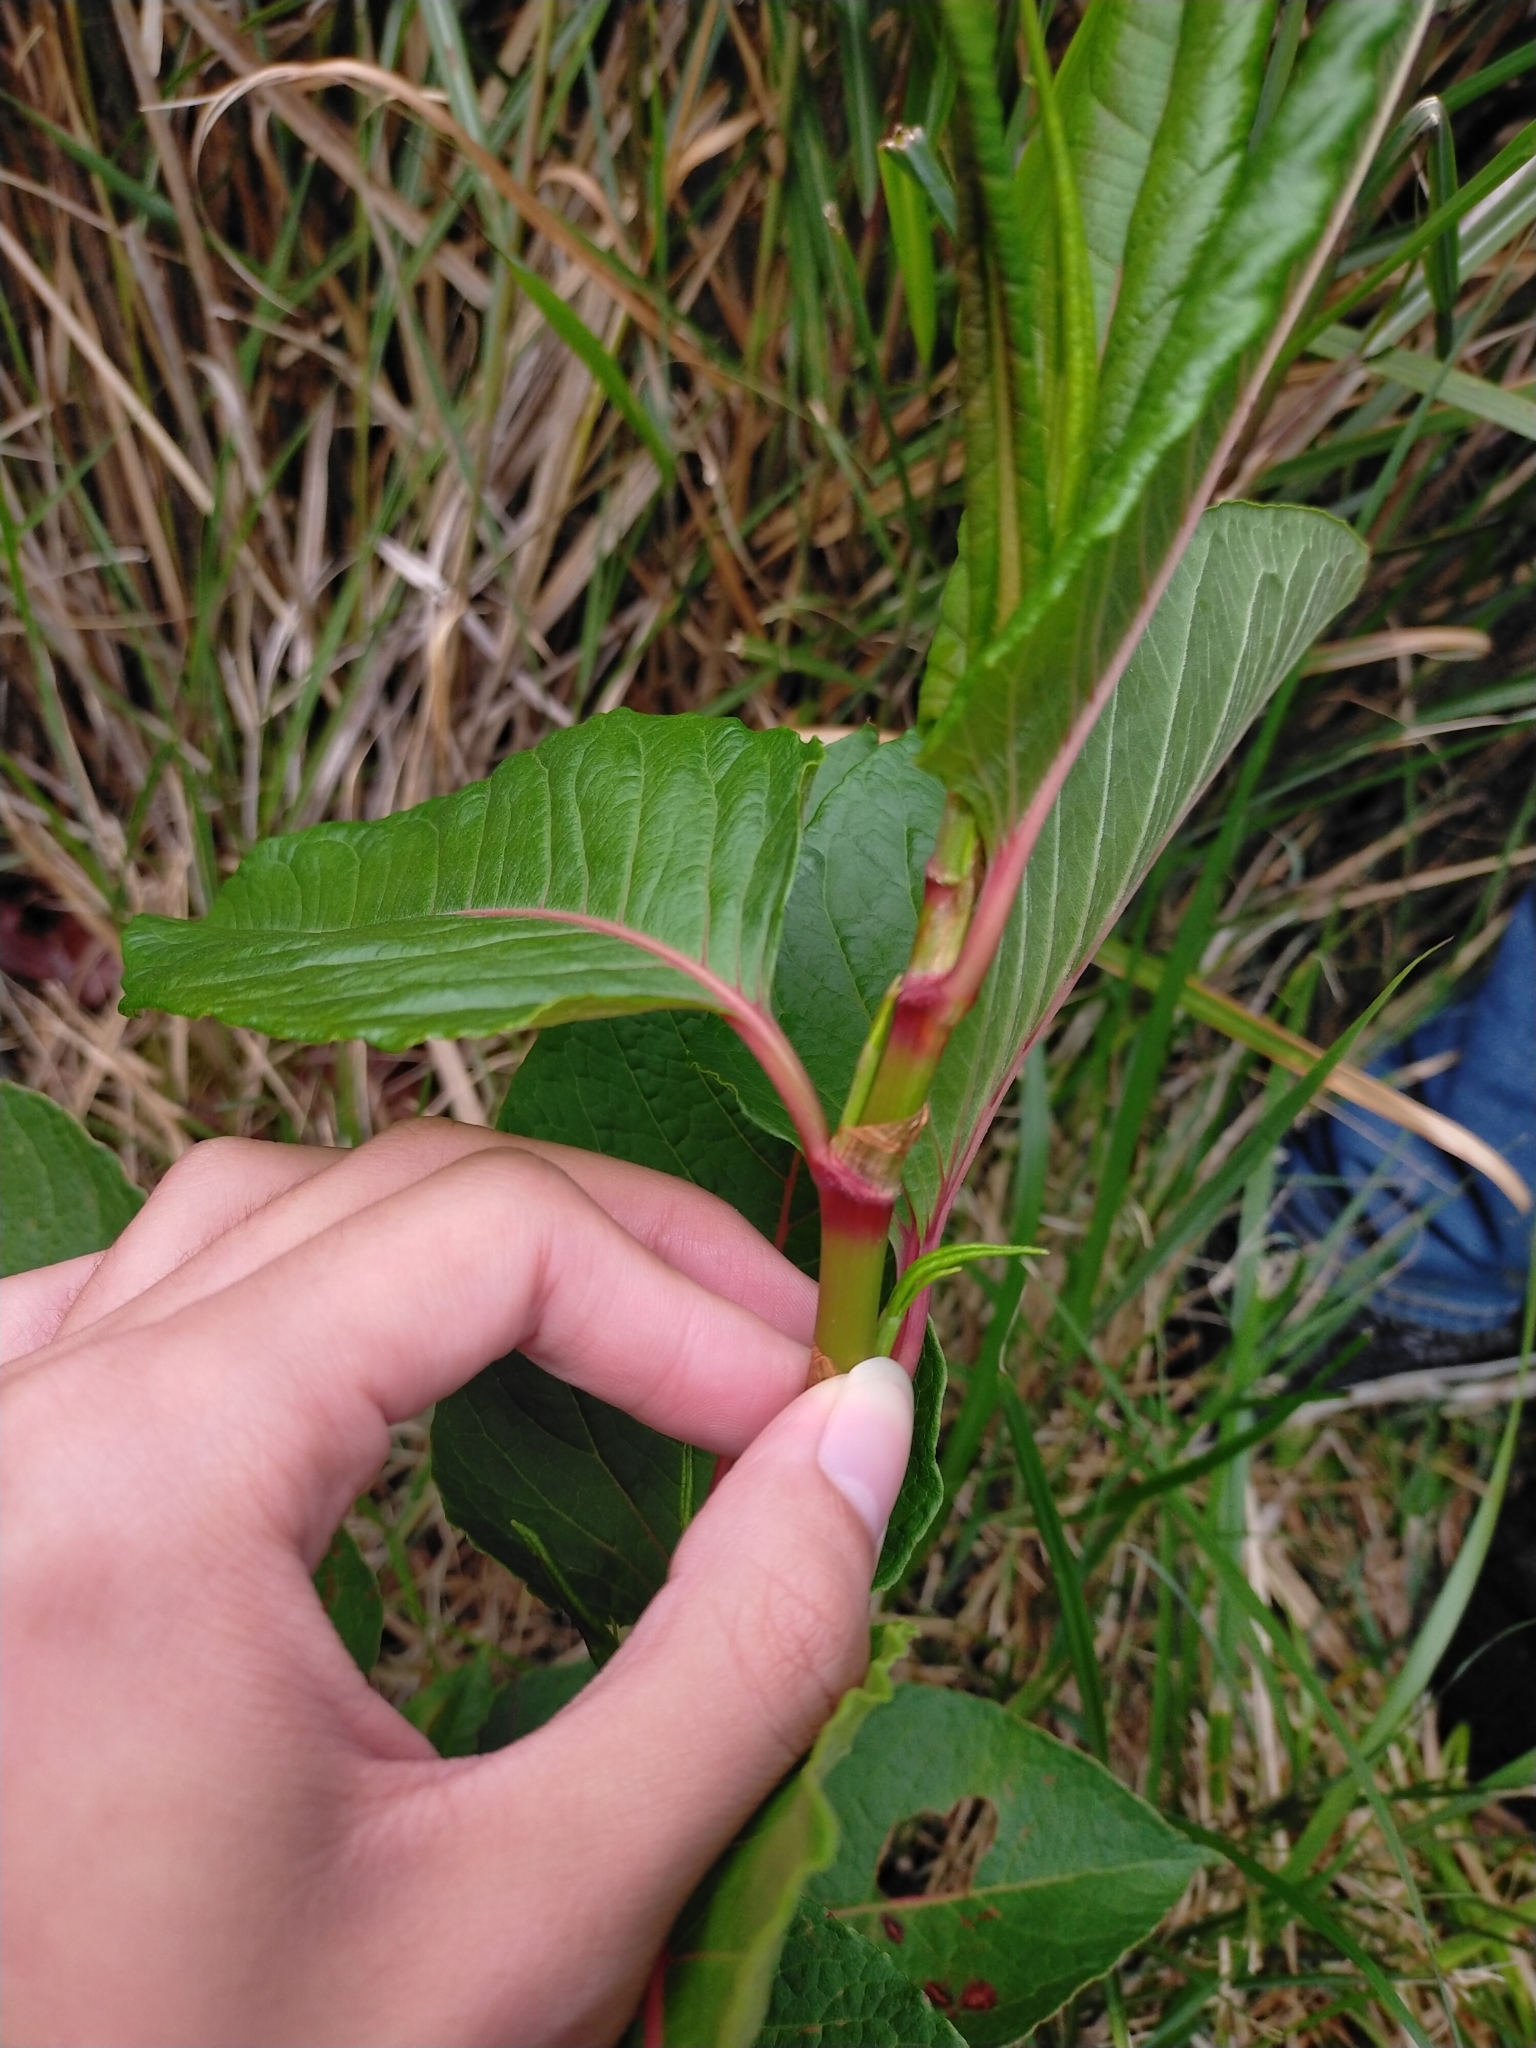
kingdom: Plantae
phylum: Tracheophyta
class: Magnoliopsida
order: Caryophyllales
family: Polygonaceae
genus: Reynoutria
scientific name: Reynoutria japonica
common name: Japanese knotweed
